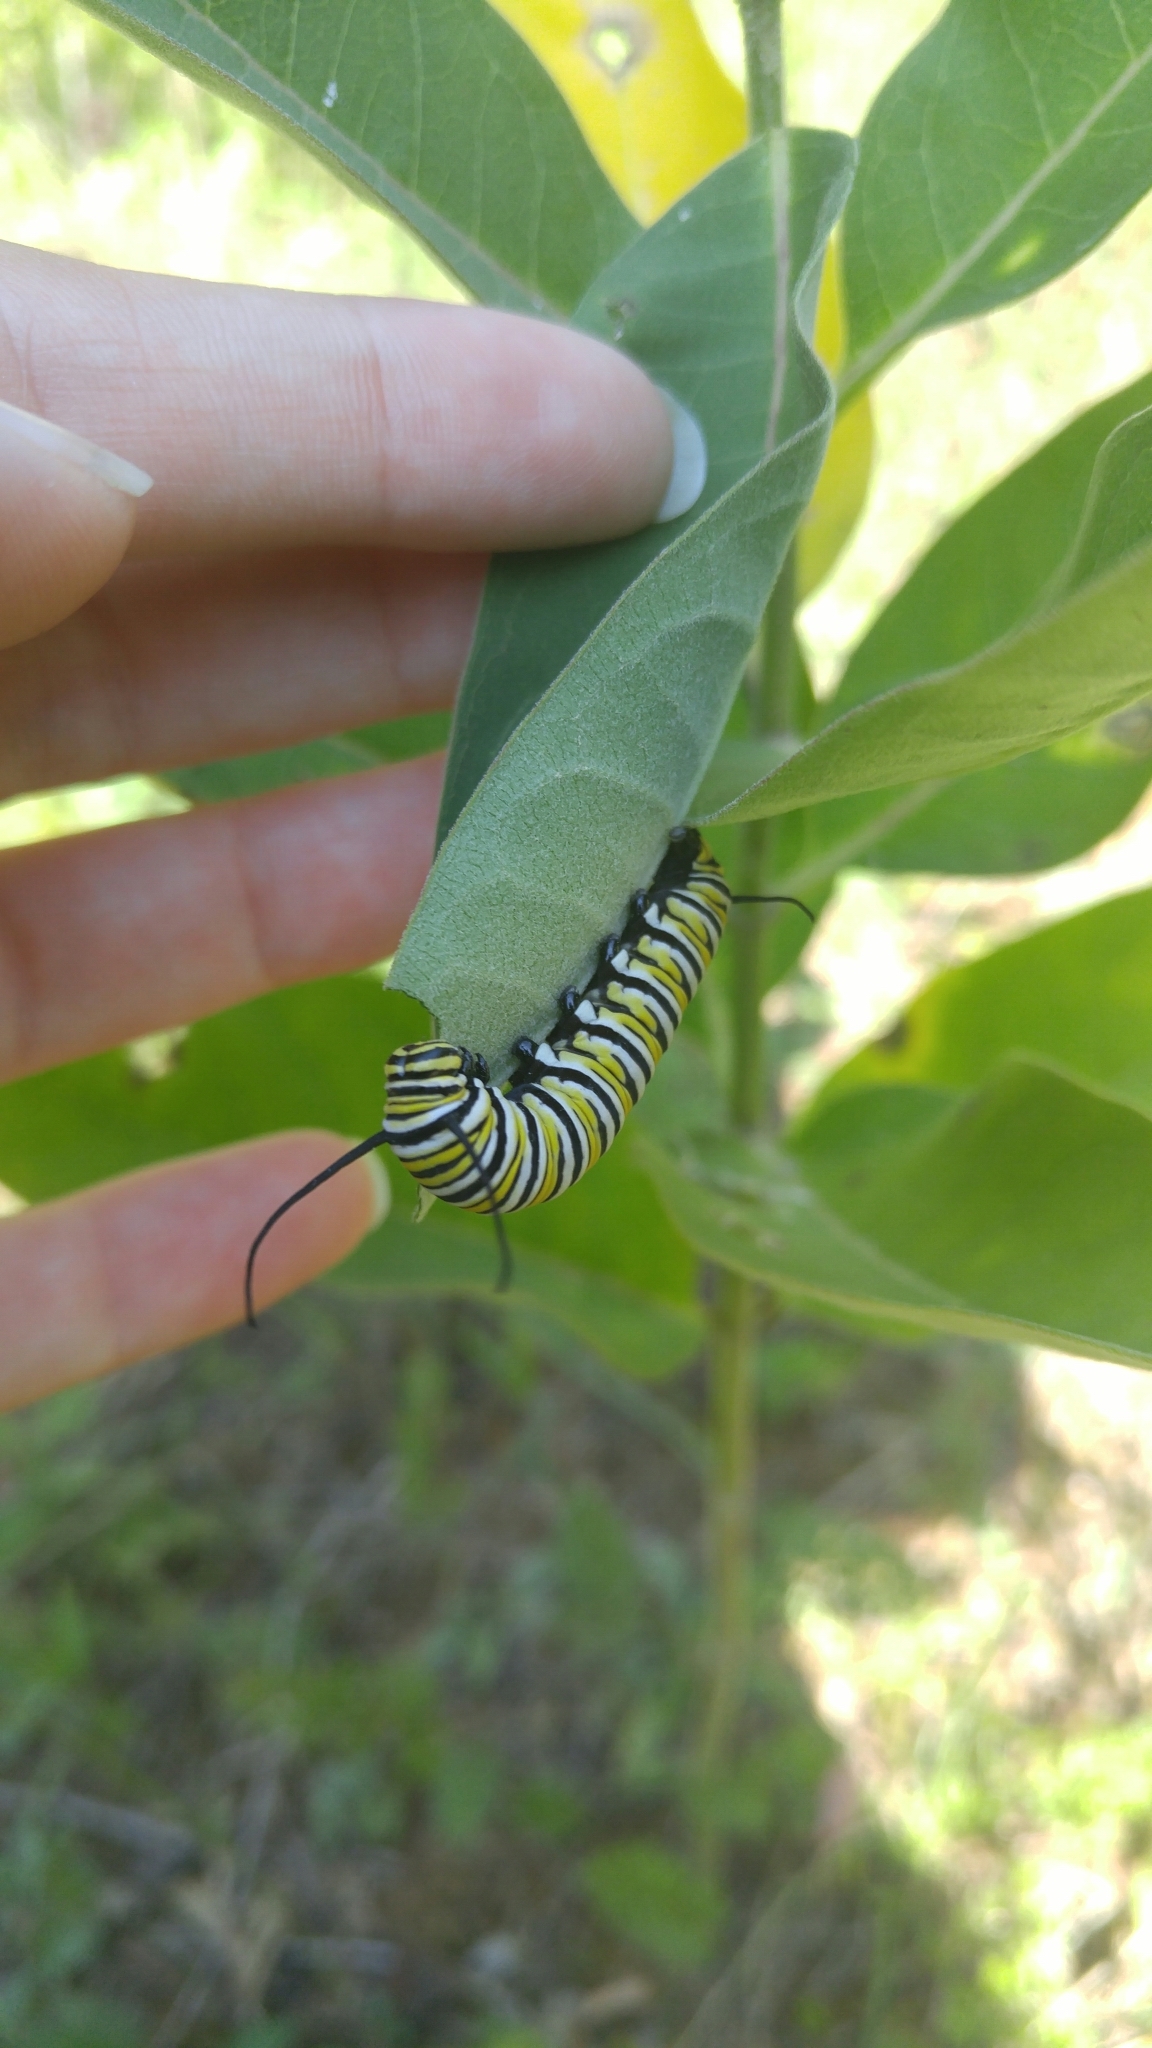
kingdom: Animalia
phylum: Arthropoda
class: Insecta
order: Lepidoptera
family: Nymphalidae
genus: Danaus
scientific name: Danaus plexippus
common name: Monarch
